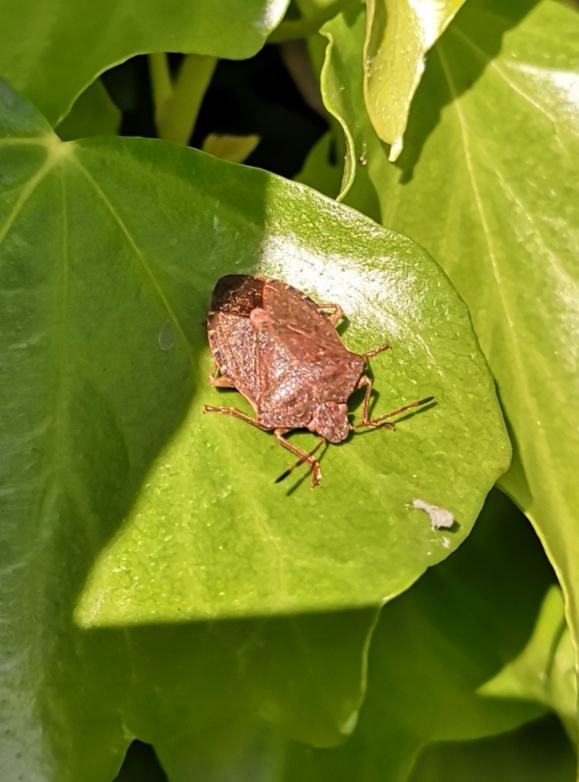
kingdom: Animalia
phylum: Arthropoda
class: Insecta
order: Hemiptera
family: Pentatomidae
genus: Palomena
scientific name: Palomena prasina
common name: Green shieldbug
